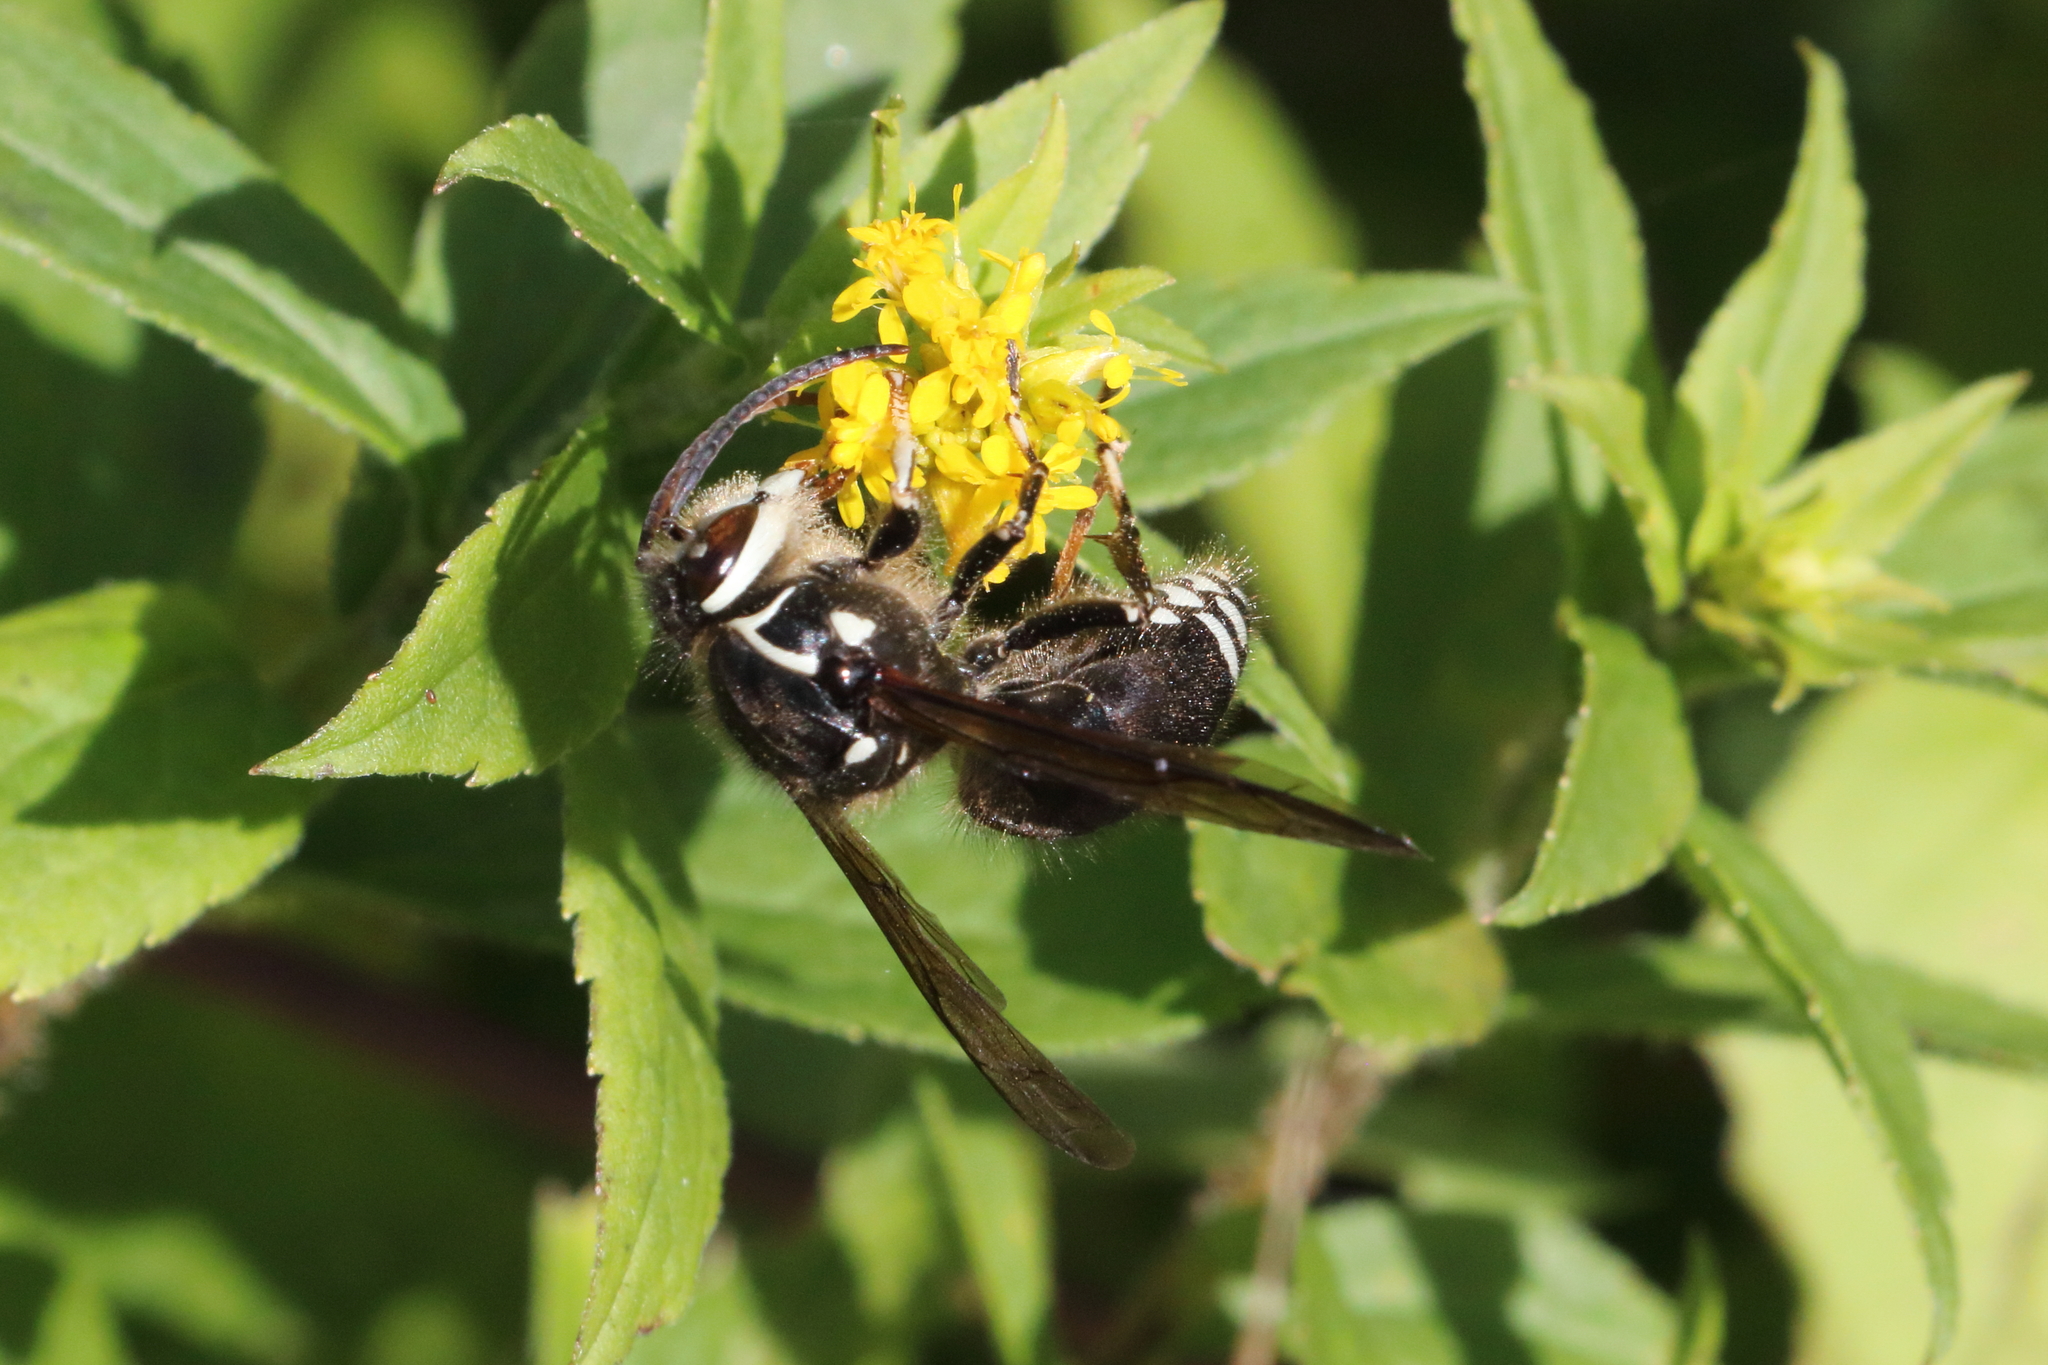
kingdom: Animalia
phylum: Arthropoda
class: Insecta
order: Hymenoptera
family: Vespidae
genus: Dolichovespula
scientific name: Dolichovespula maculata
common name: Bald-faced hornet
